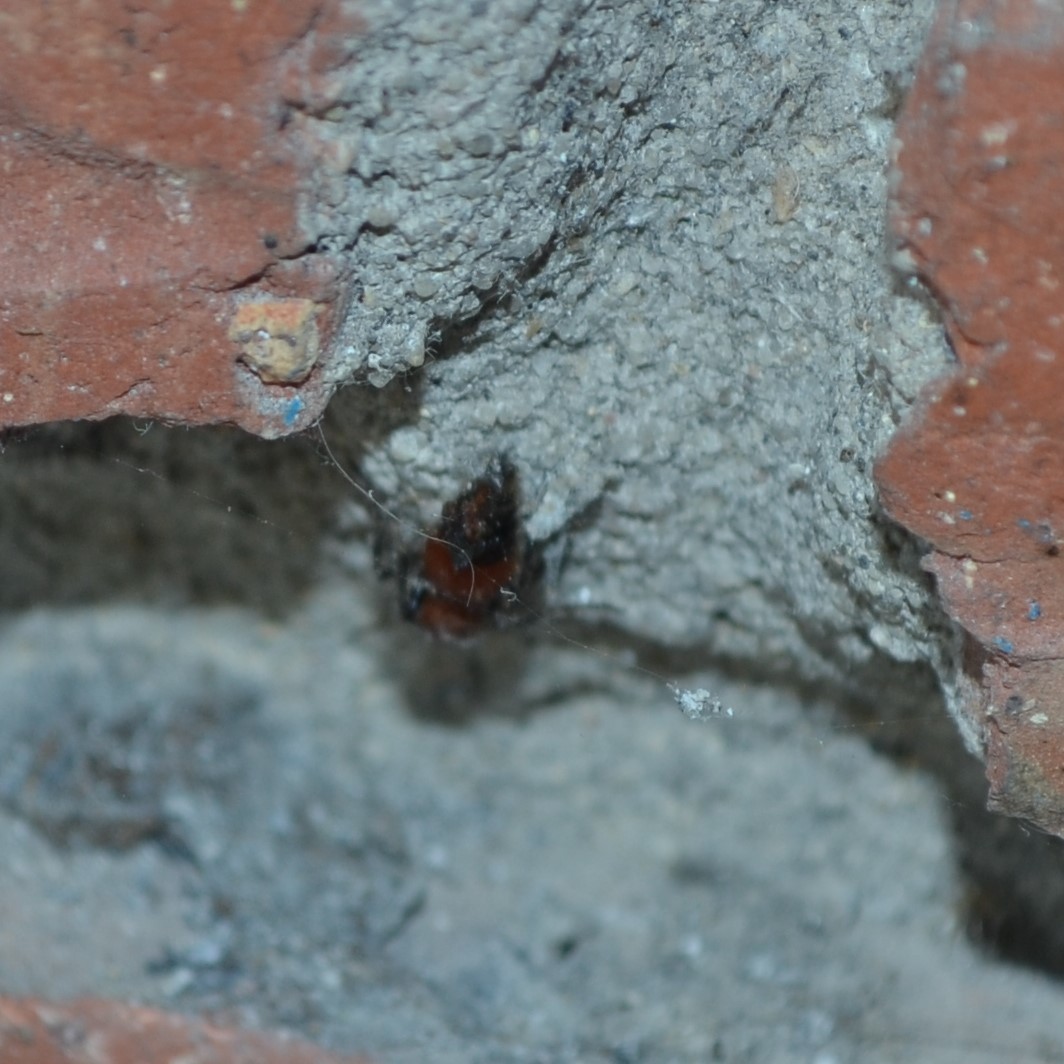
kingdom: Animalia
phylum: Arthropoda
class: Insecta
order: Hymenoptera
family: Mutillidae
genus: Dasymutilla
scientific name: Dasymutilla
